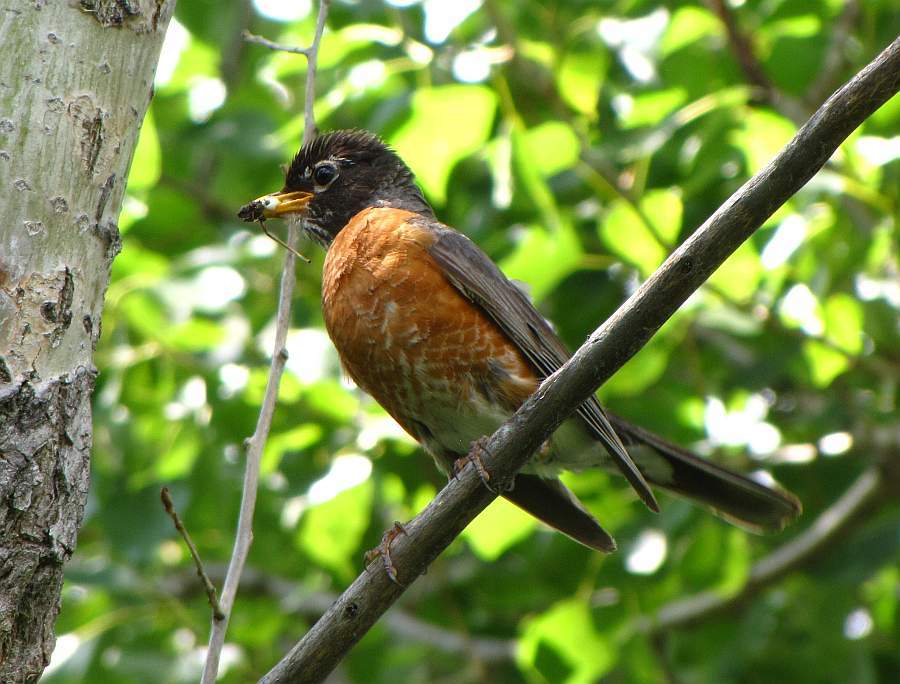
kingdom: Animalia
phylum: Chordata
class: Aves
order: Passeriformes
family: Turdidae
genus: Turdus
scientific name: Turdus migratorius
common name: American robin
